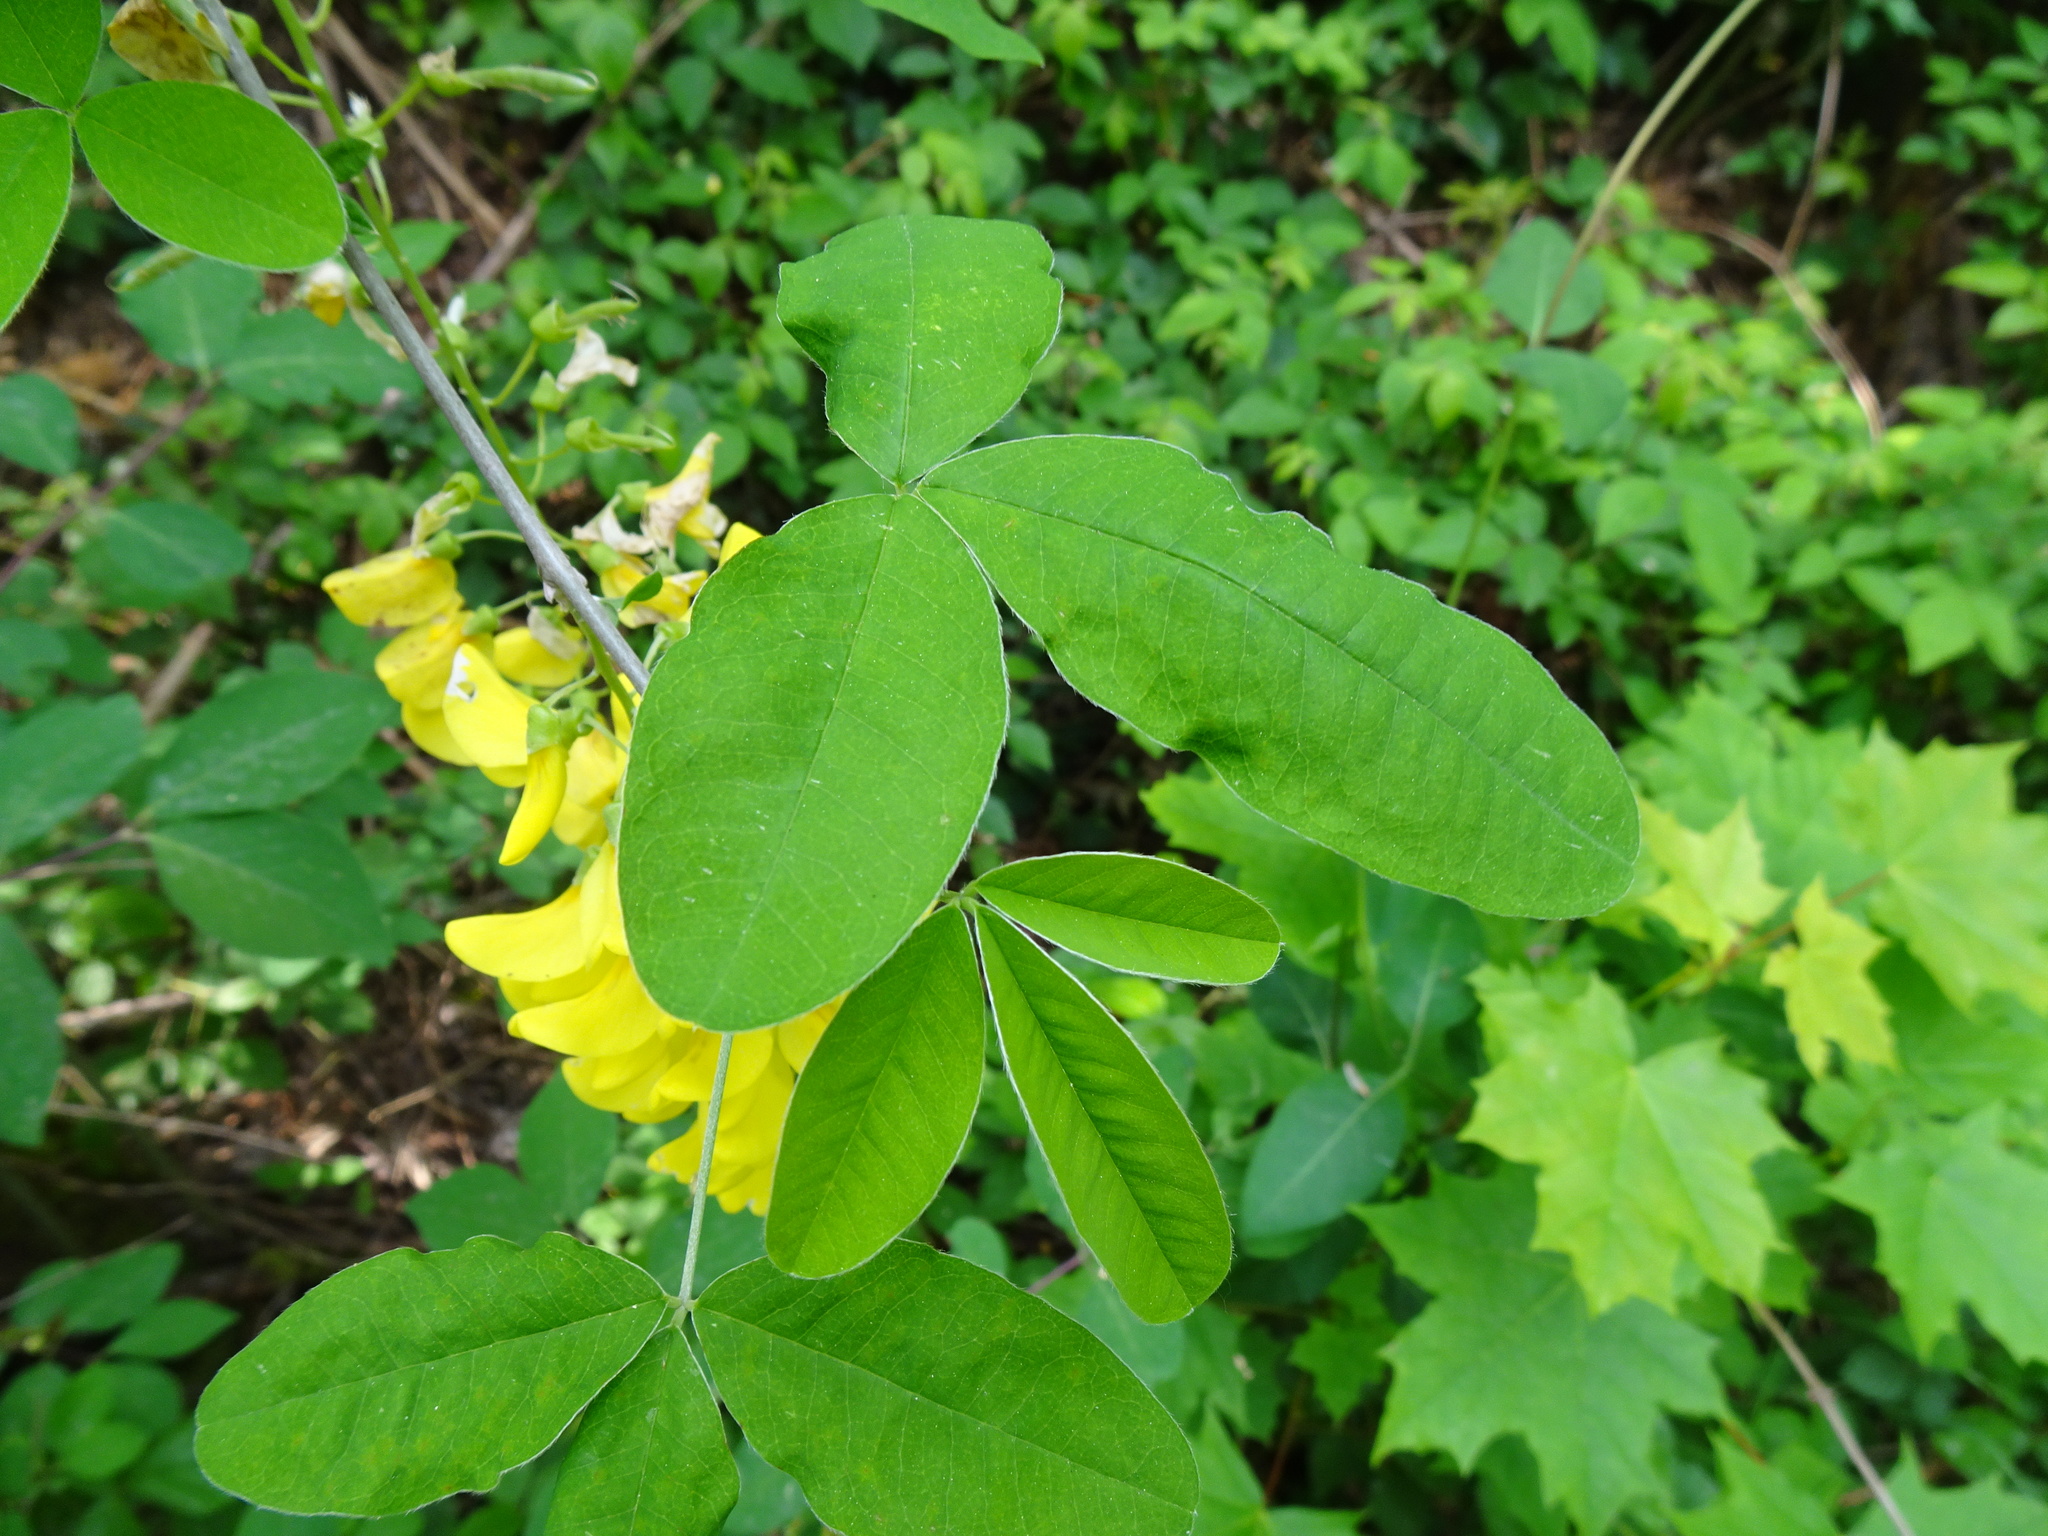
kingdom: Plantae
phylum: Tracheophyta
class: Magnoliopsida
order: Fabales
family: Fabaceae
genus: Laburnum
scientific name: Laburnum anagyroides
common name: Laburnum
